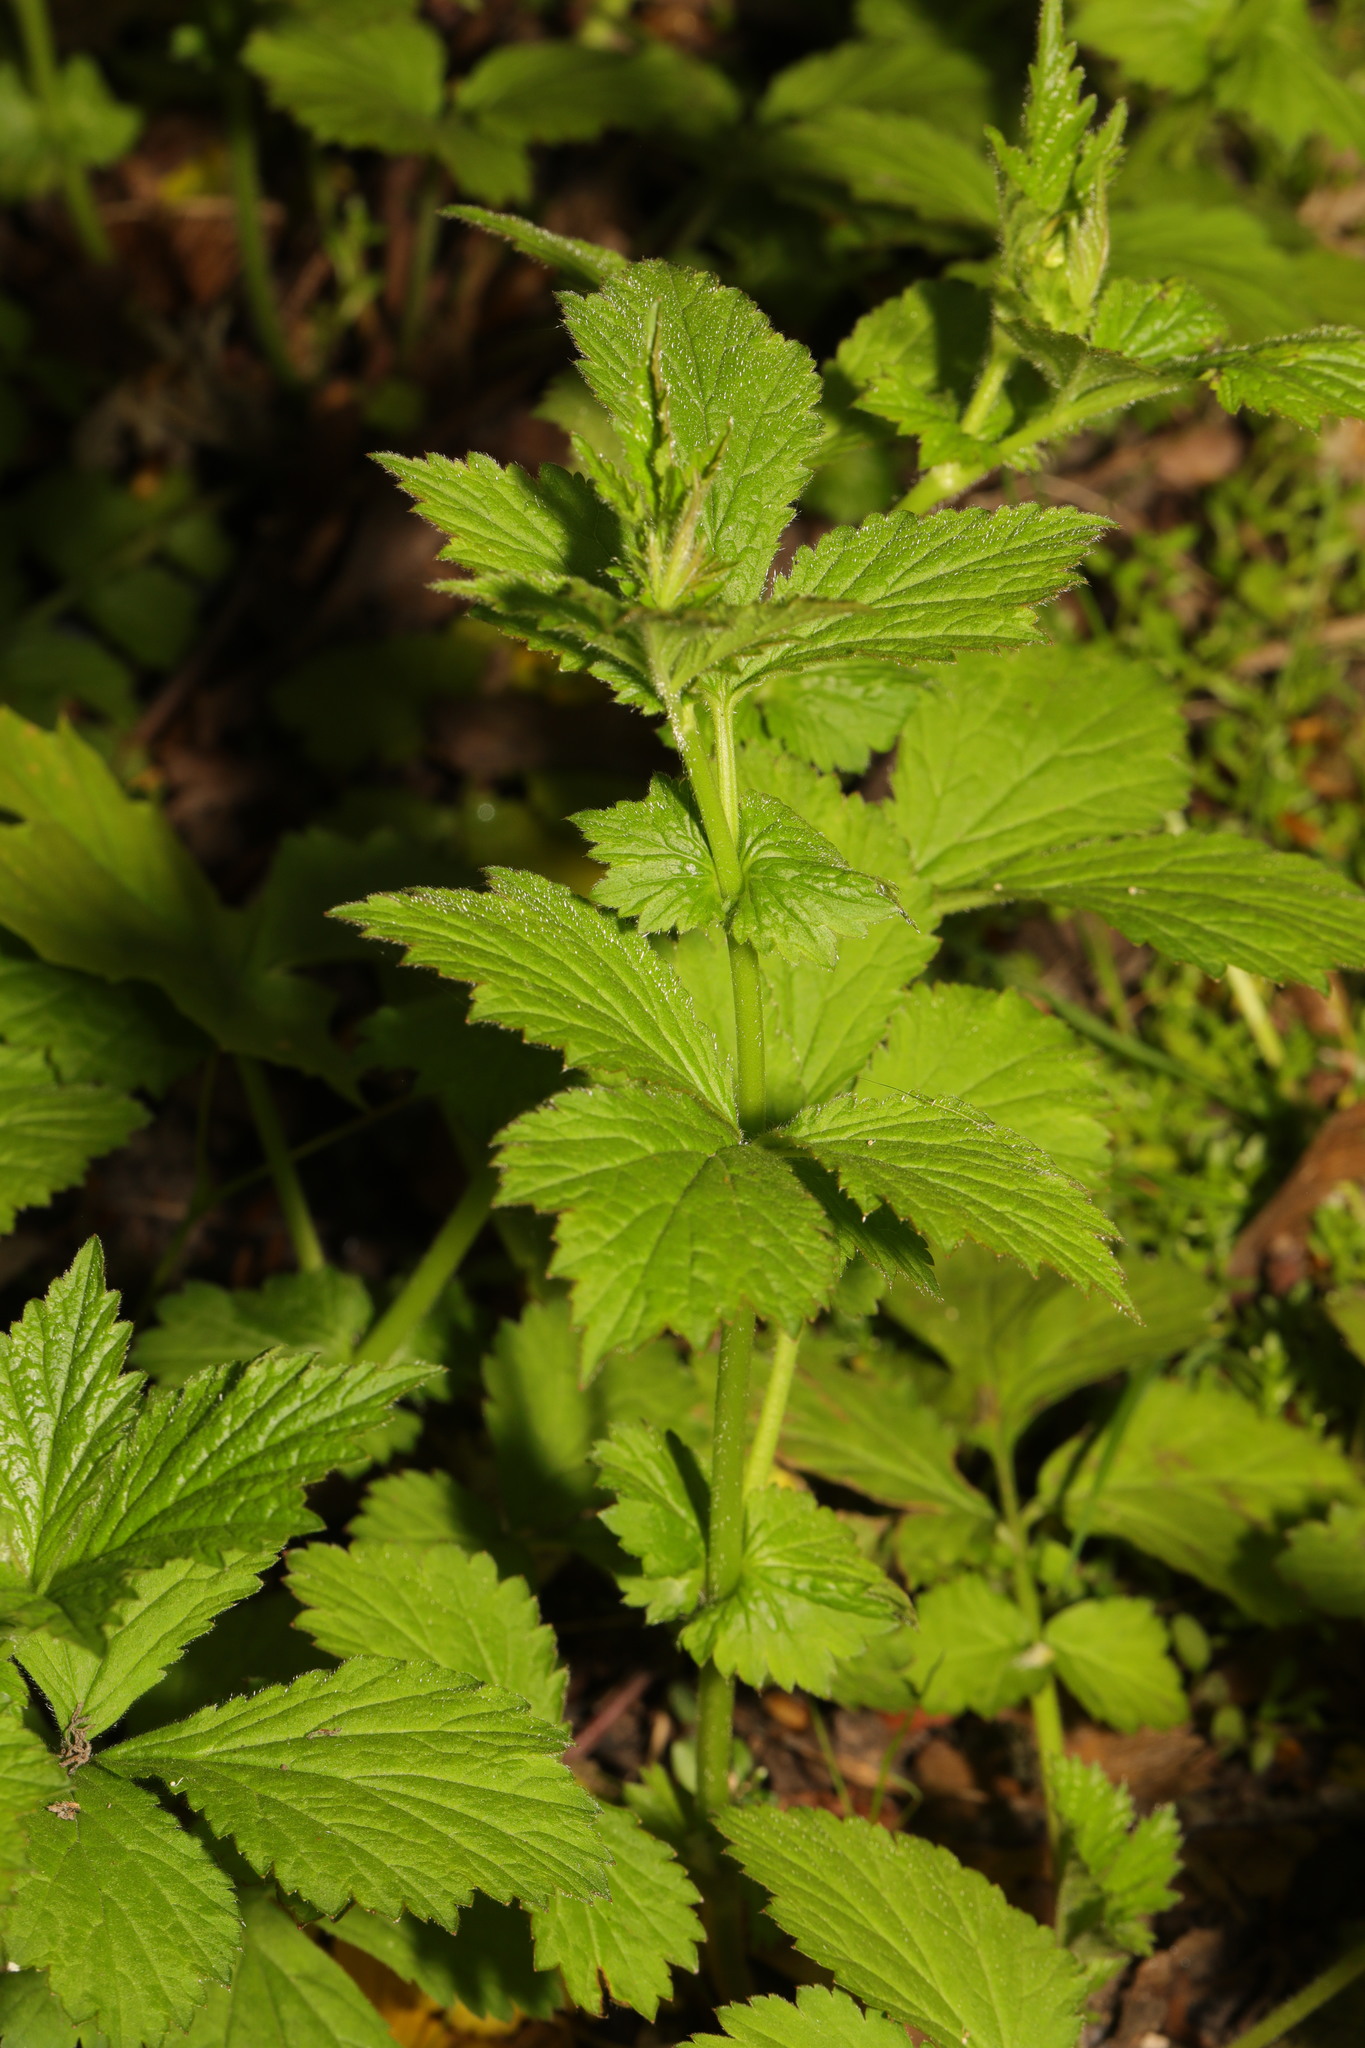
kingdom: Plantae
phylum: Tracheophyta
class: Magnoliopsida
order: Rosales
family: Rosaceae
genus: Geum
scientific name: Geum urbanum
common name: Wood avens
